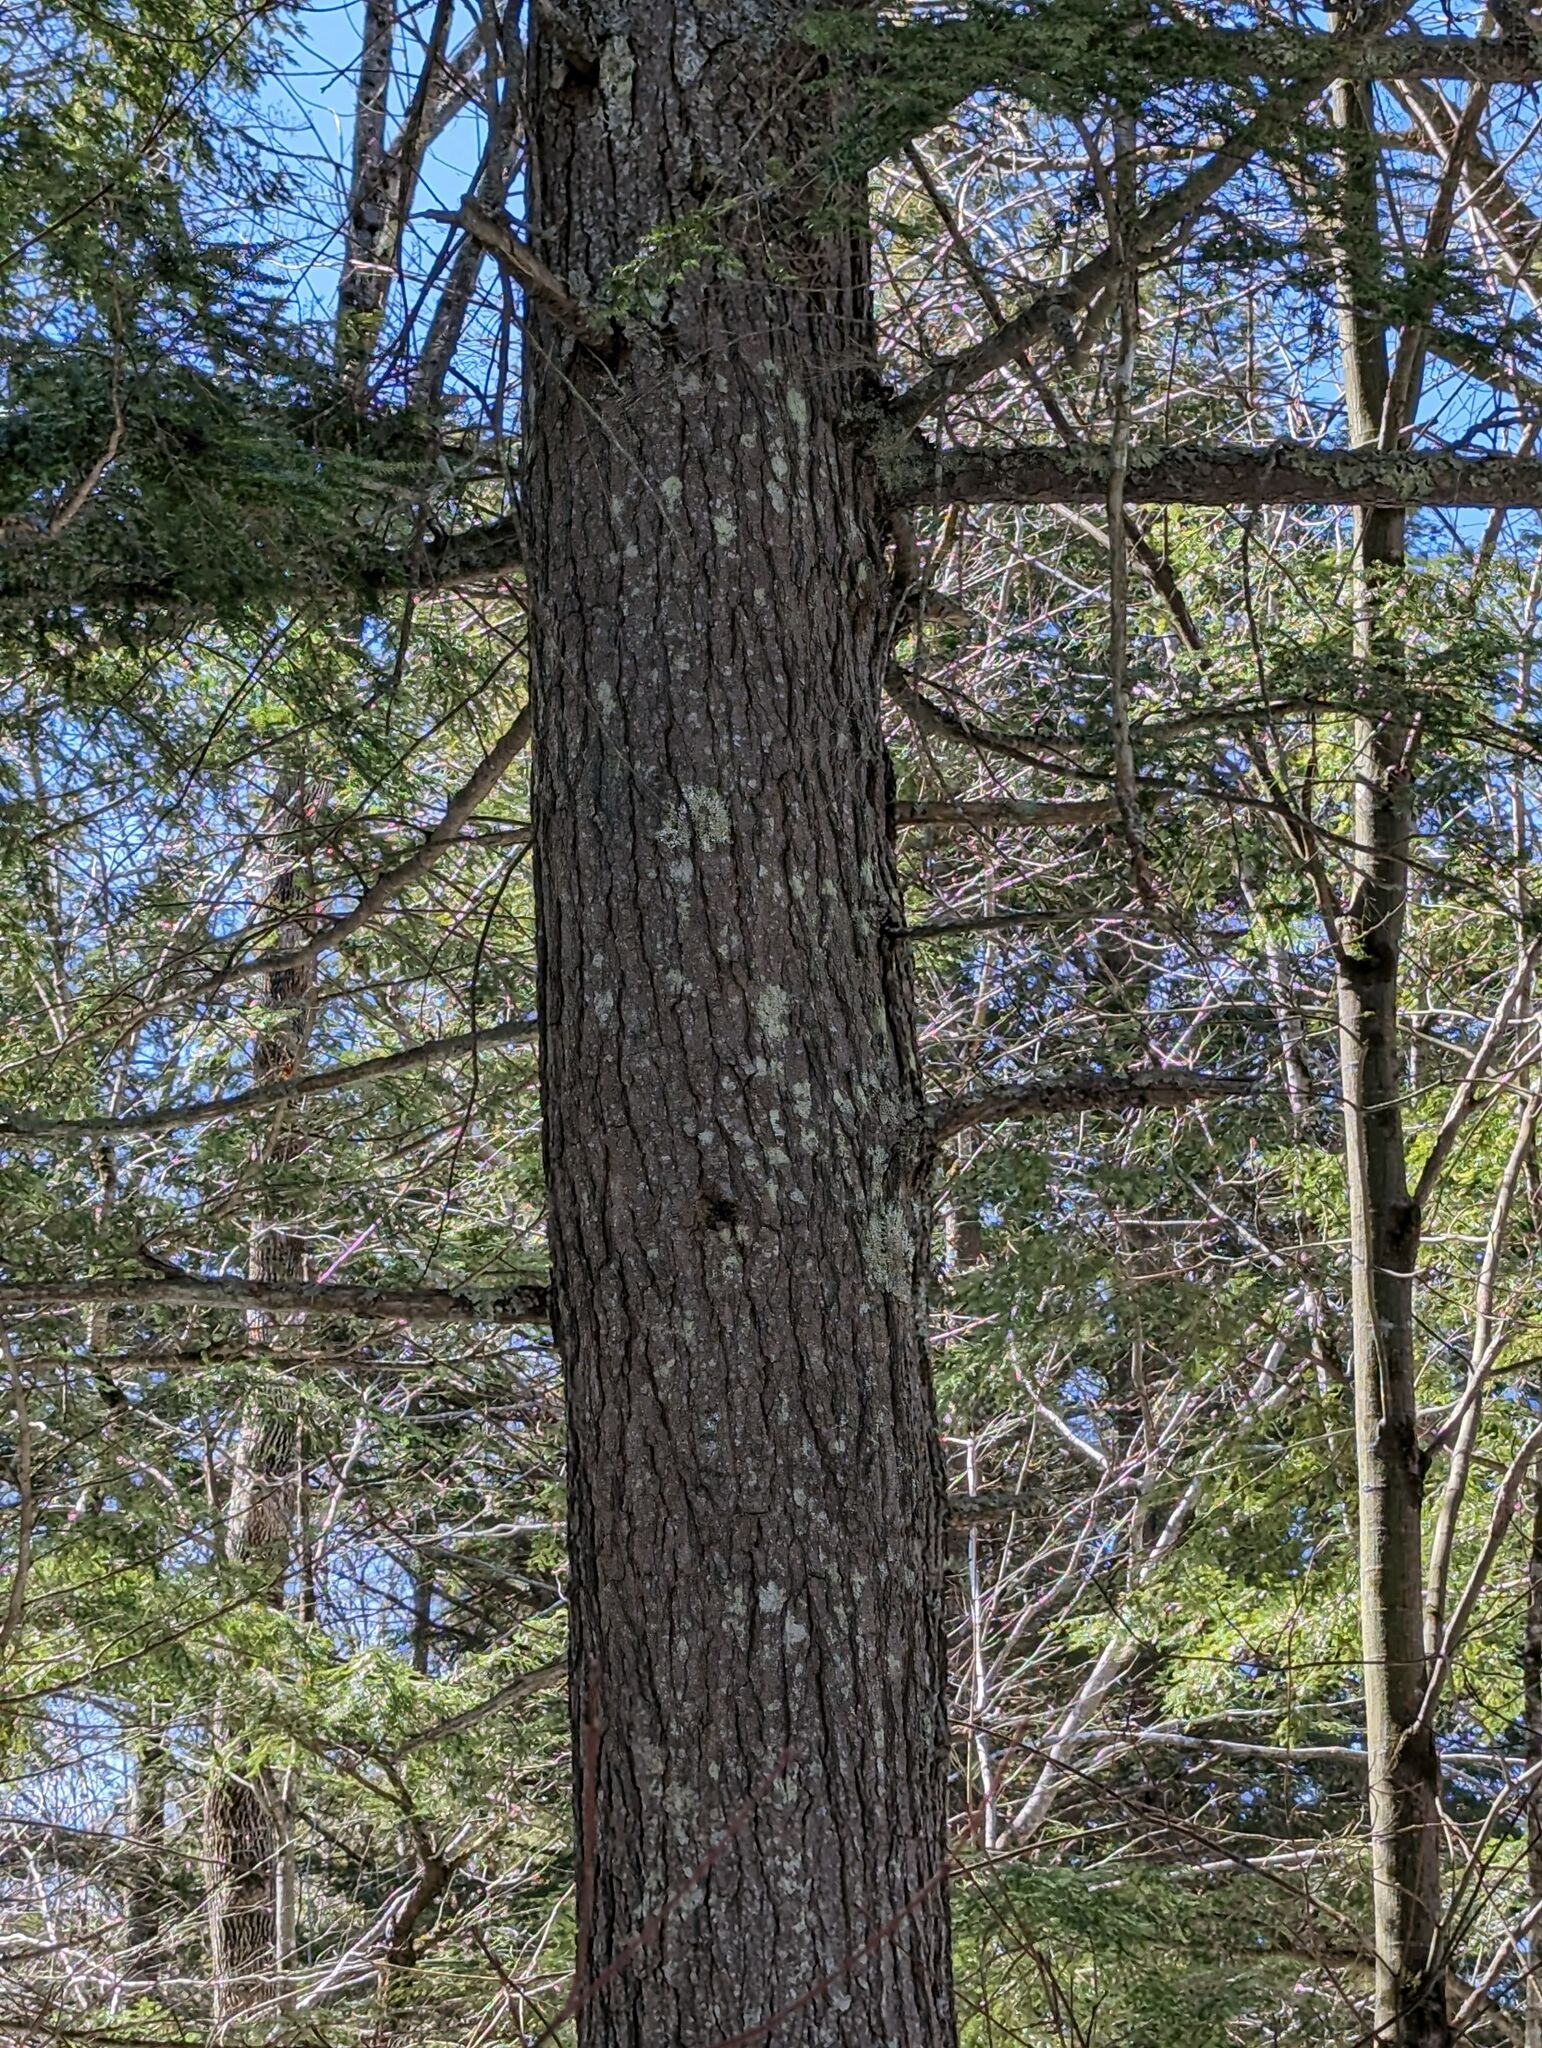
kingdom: Plantae
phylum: Tracheophyta
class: Pinopsida
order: Pinales
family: Pinaceae
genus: Tsuga
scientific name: Tsuga canadensis
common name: Eastern hemlock
